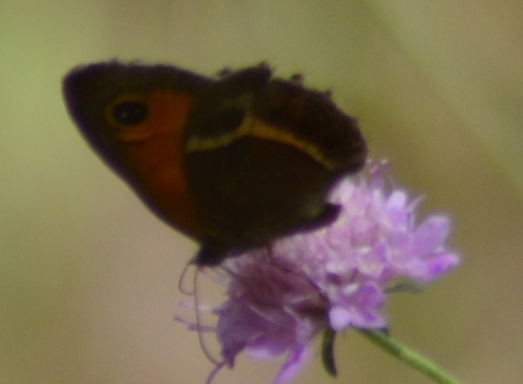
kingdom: Animalia
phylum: Arthropoda
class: Insecta
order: Lepidoptera
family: Nymphalidae
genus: Pyronia
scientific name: Pyronia bathseba
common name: Spanish gatekeeper
